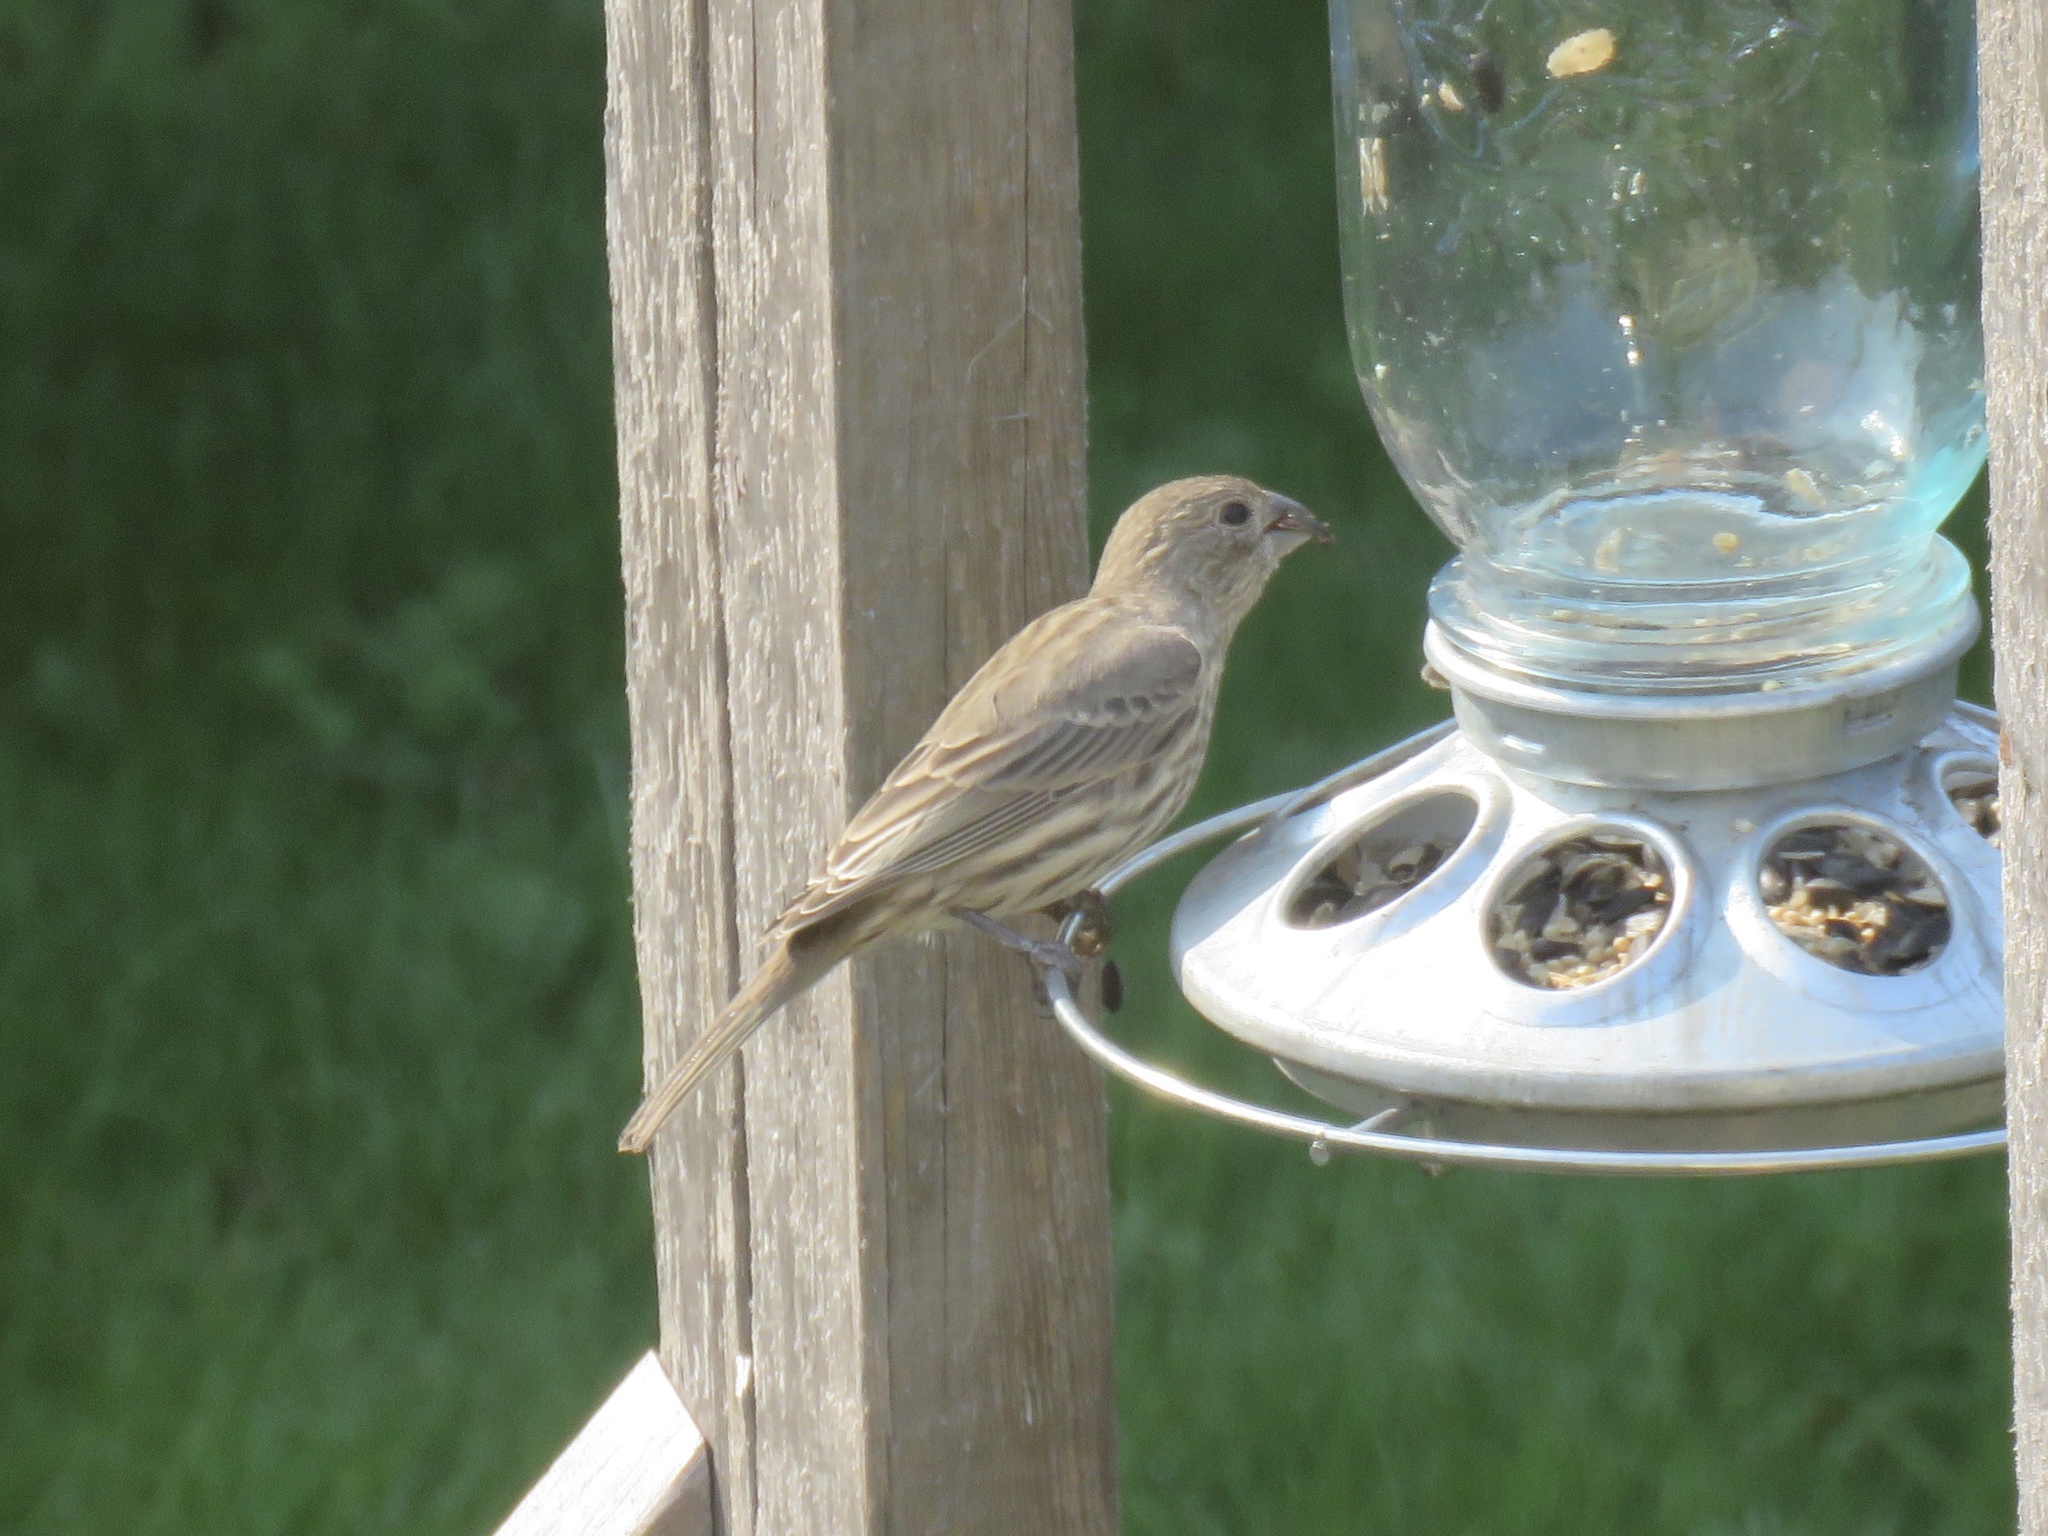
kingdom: Animalia
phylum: Chordata
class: Aves
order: Passeriformes
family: Fringillidae
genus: Haemorhous
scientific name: Haemorhous mexicanus
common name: House finch
